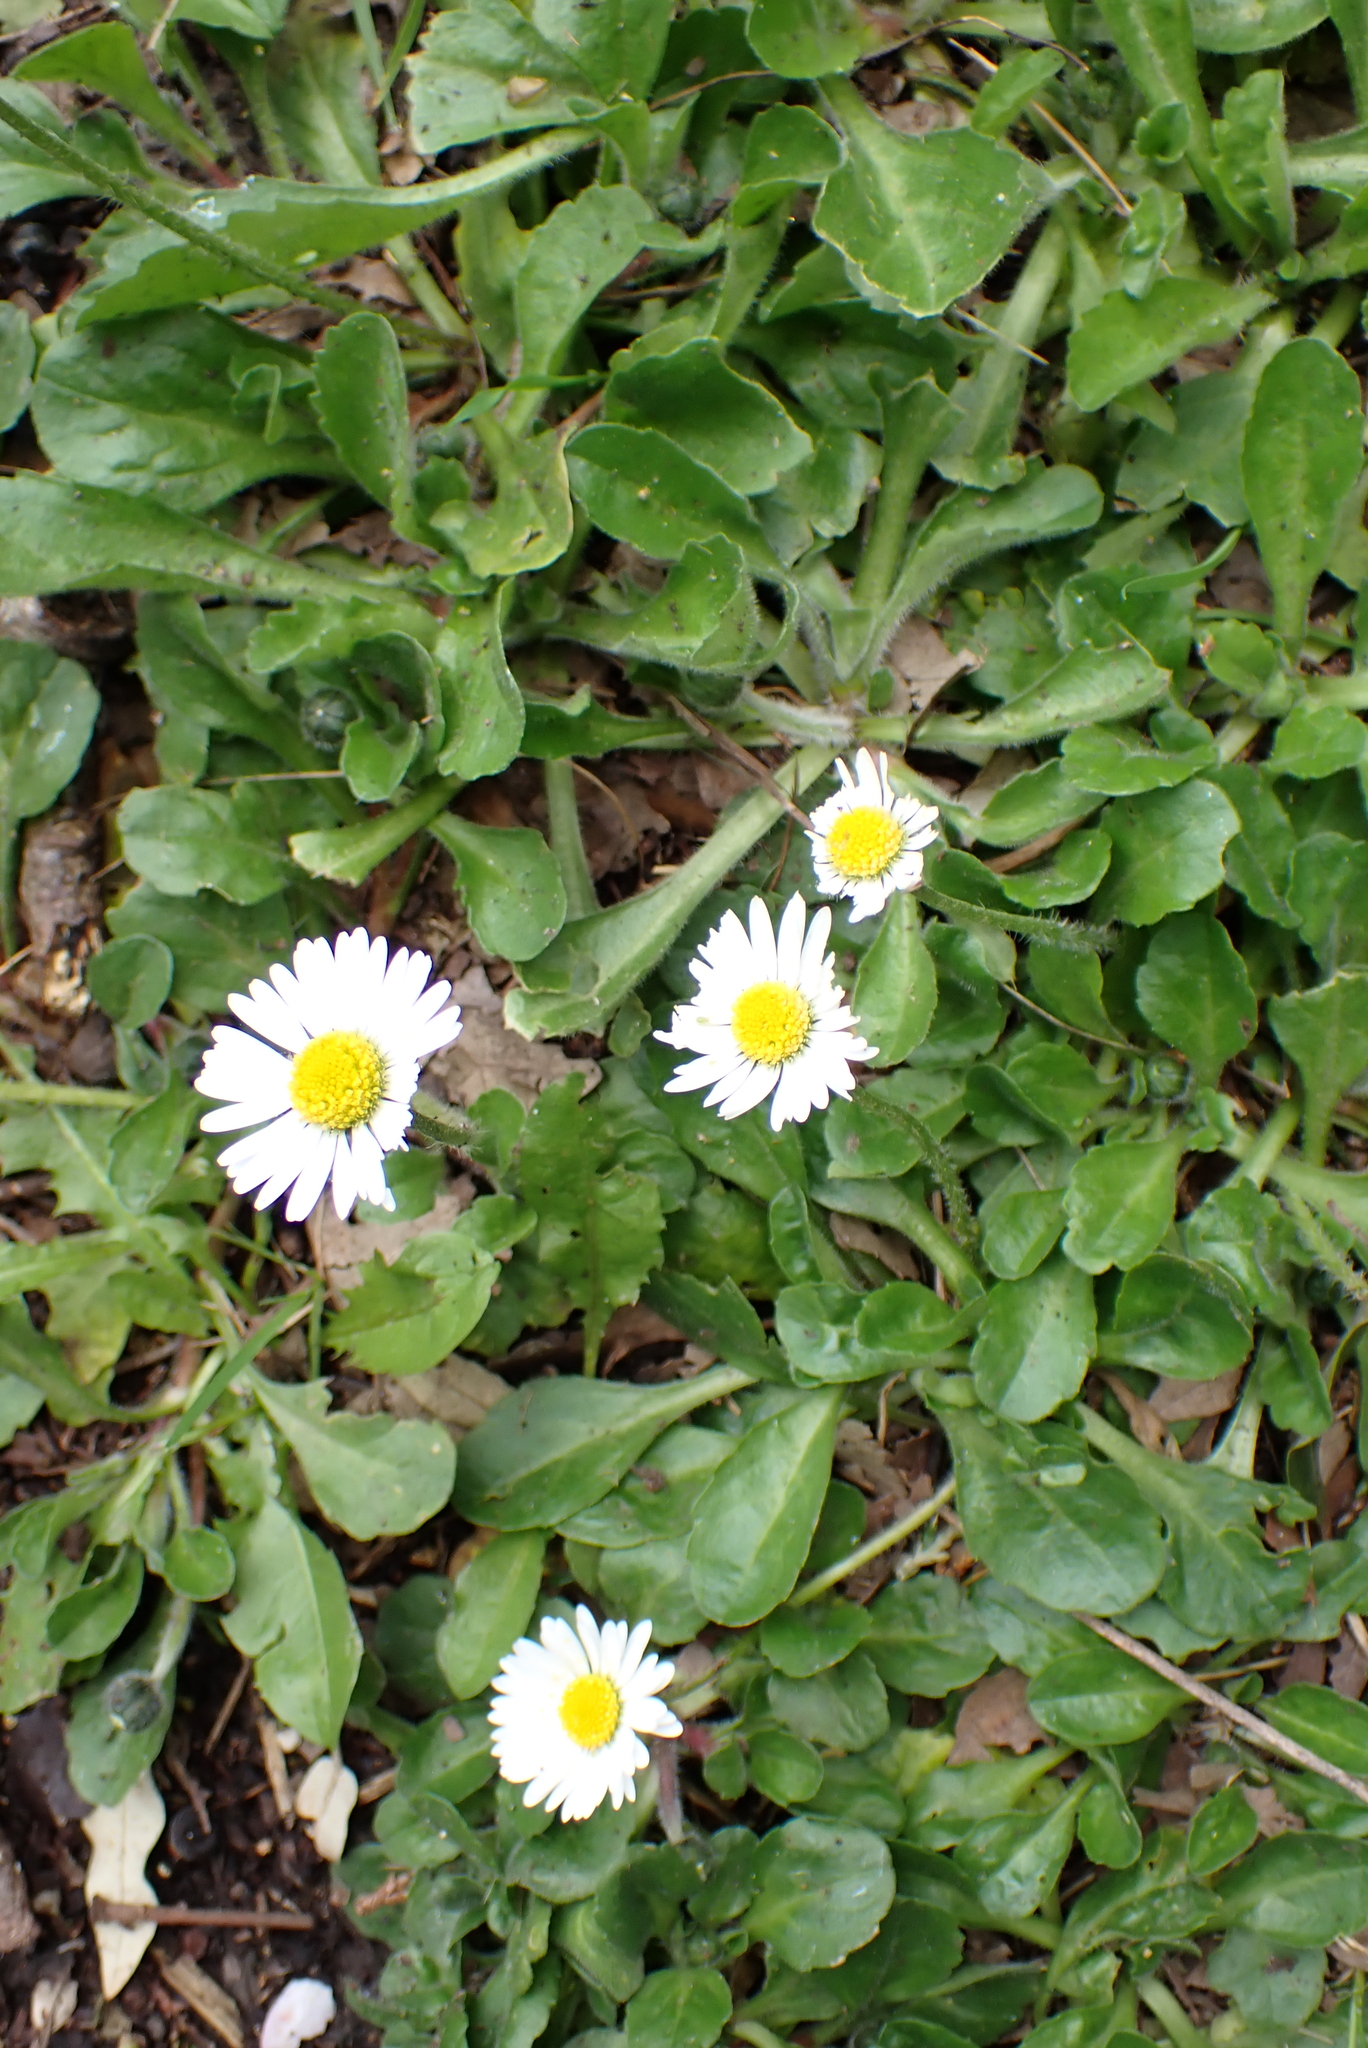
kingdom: Plantae
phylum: Tracheophyta
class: Magnoliopsida
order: Asterales
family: Asteraceae
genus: Bellis
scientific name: Bellis perennis
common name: Lawndaisy
